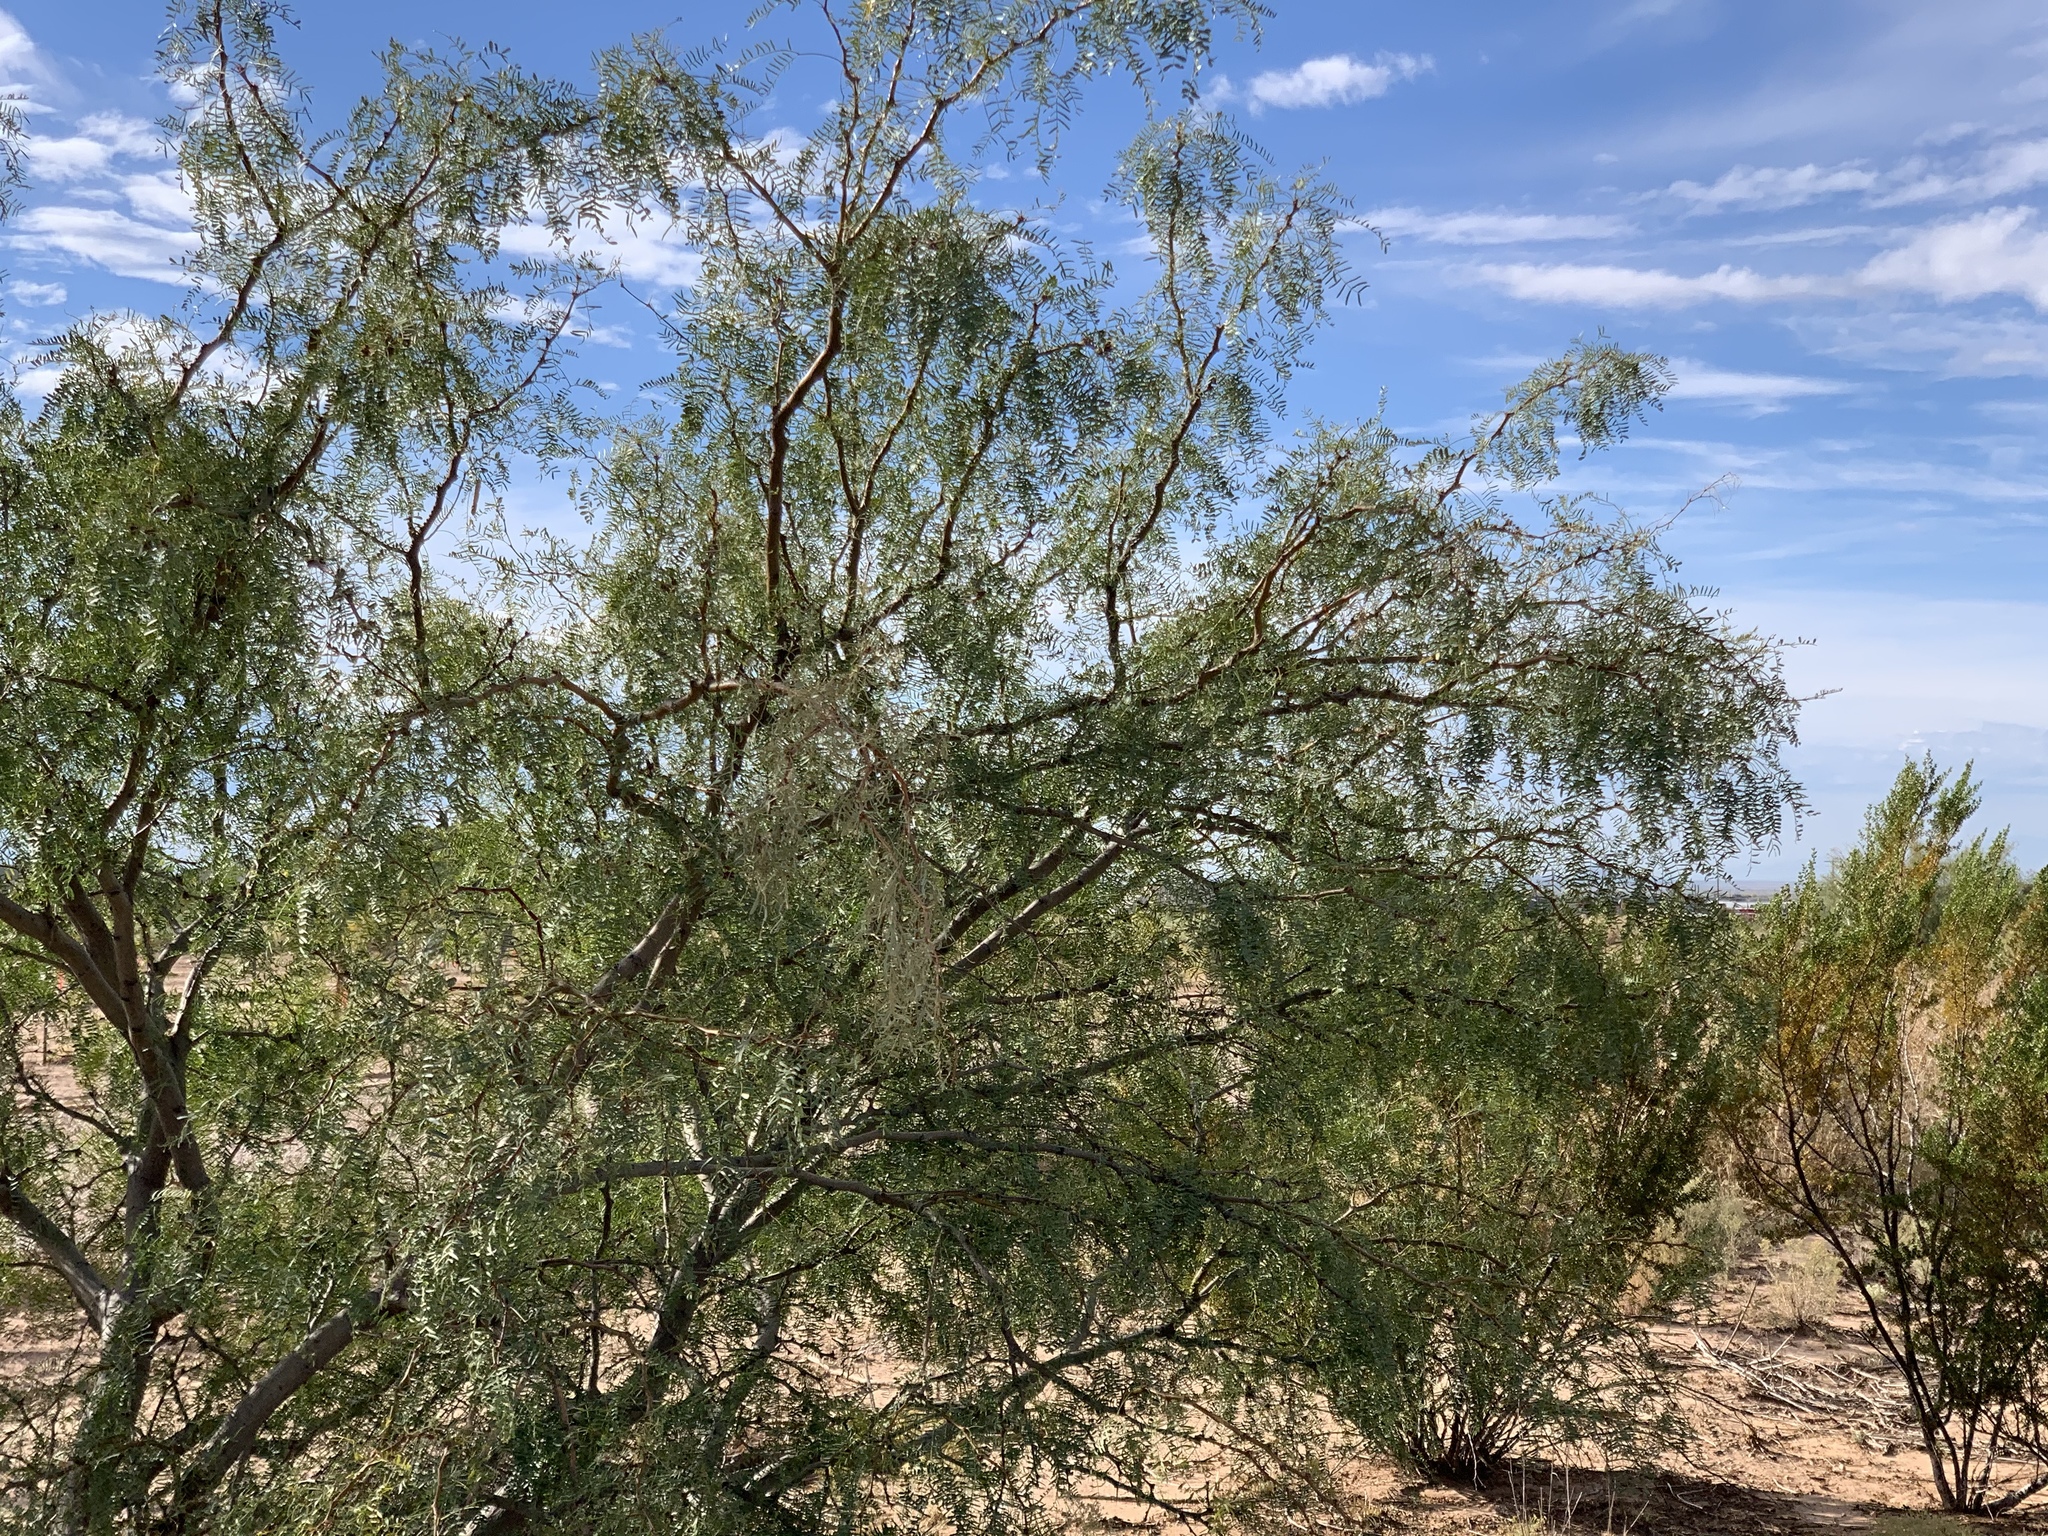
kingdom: Plantae
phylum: Tracheophyta
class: Magnoliopsida
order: Fabales
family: Fabaceae
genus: Prosopis
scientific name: Prosopis glandulosa
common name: Honey mesquite
